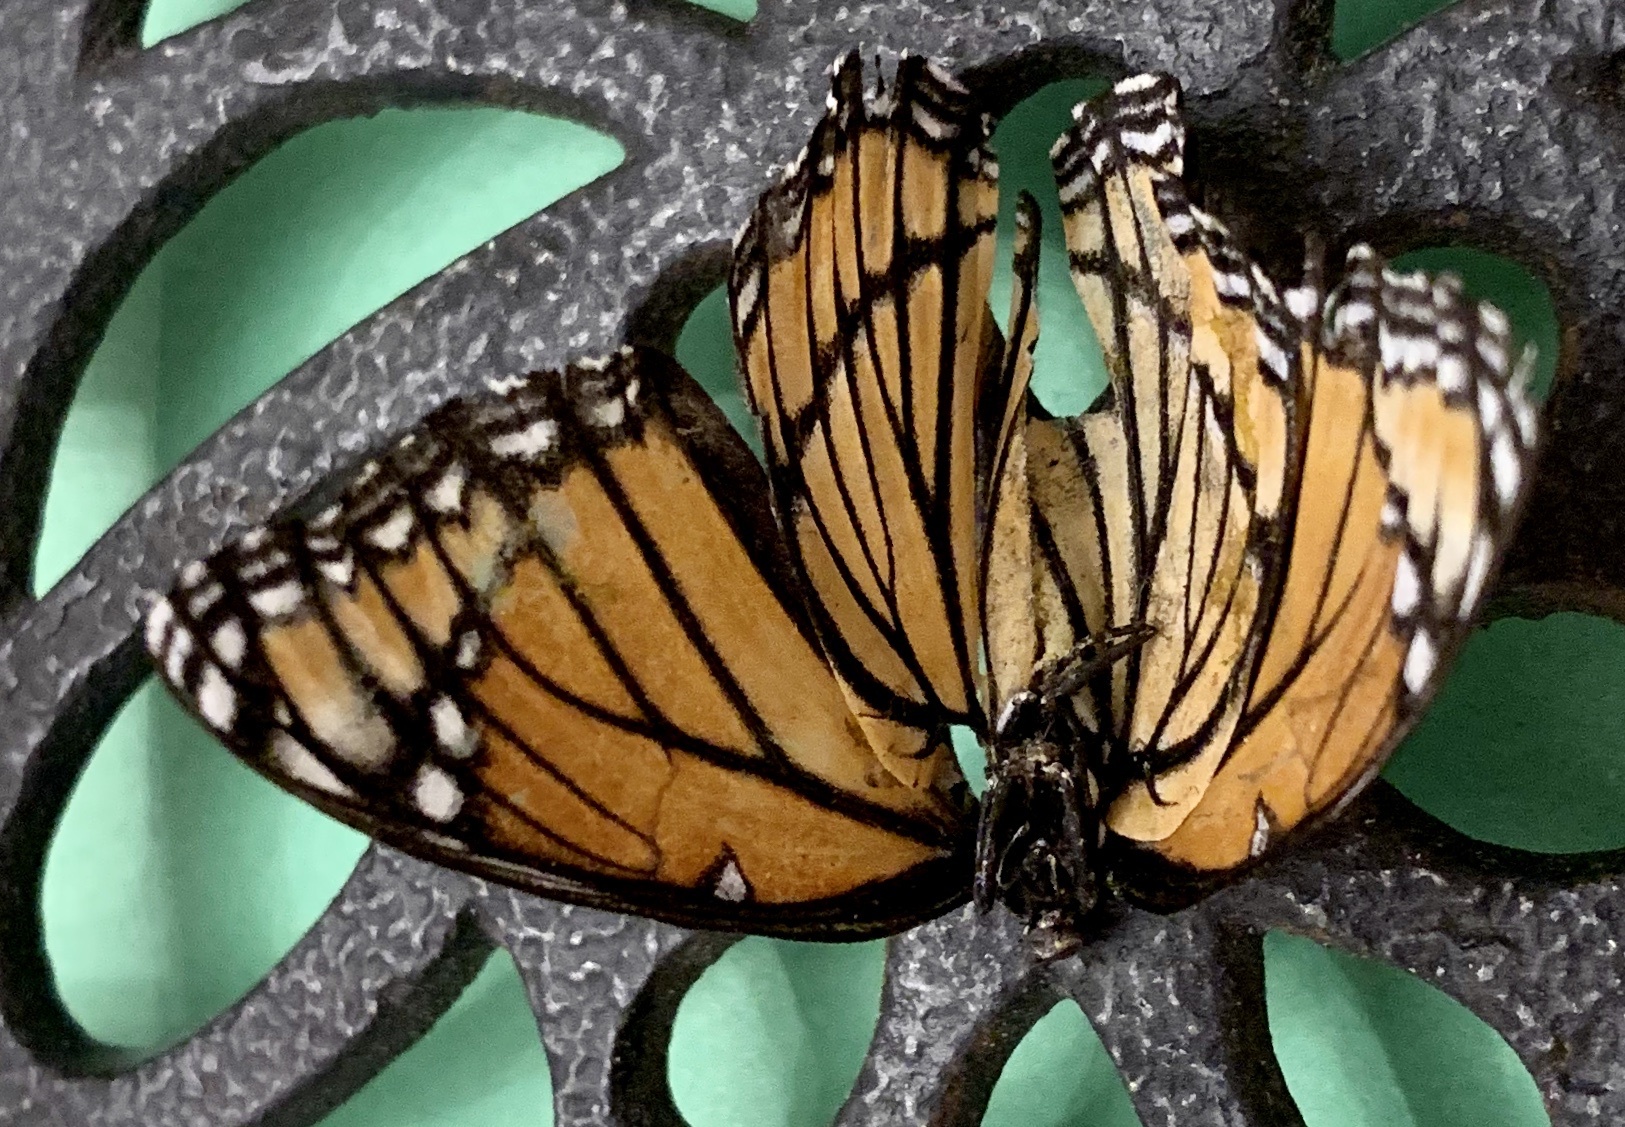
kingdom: Animalia
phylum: Arthropoda
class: Insecta
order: Lepidoptera
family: Nymphalidae
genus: Limenitis
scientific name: Limenitis archippus
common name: Viceroy
